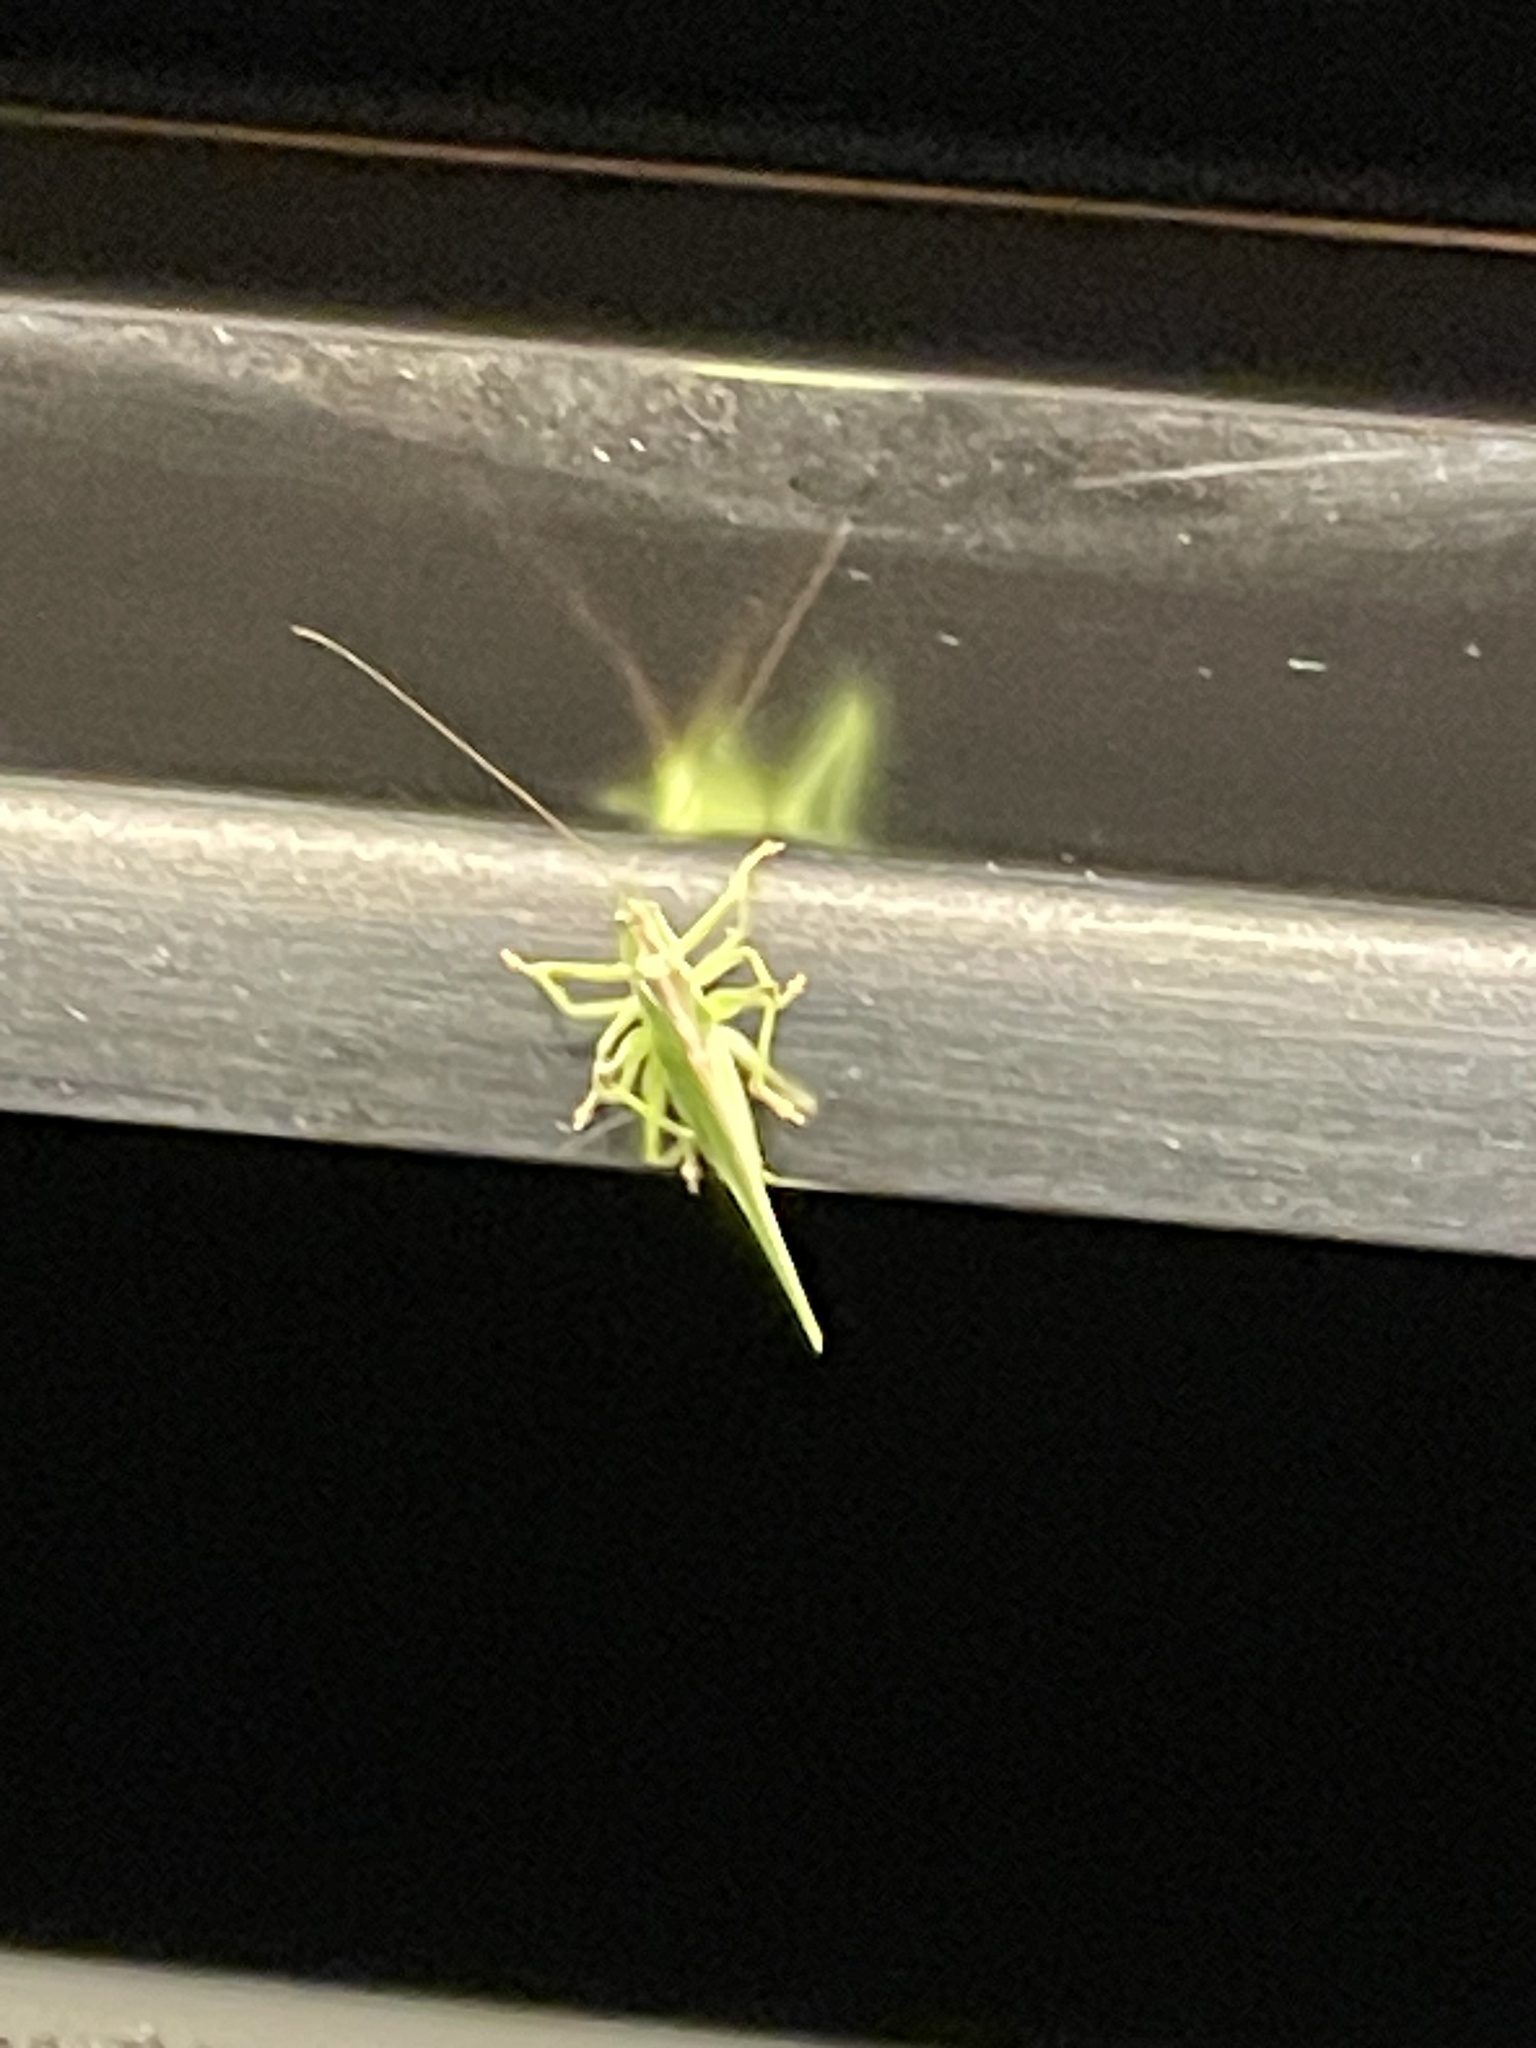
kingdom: Animalia
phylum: Arthropoda
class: Insecta
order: Orthoptera
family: Tettigoniidae
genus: Tettigonia
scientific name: Tettigonia viridissima
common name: Great green bush-cricket
